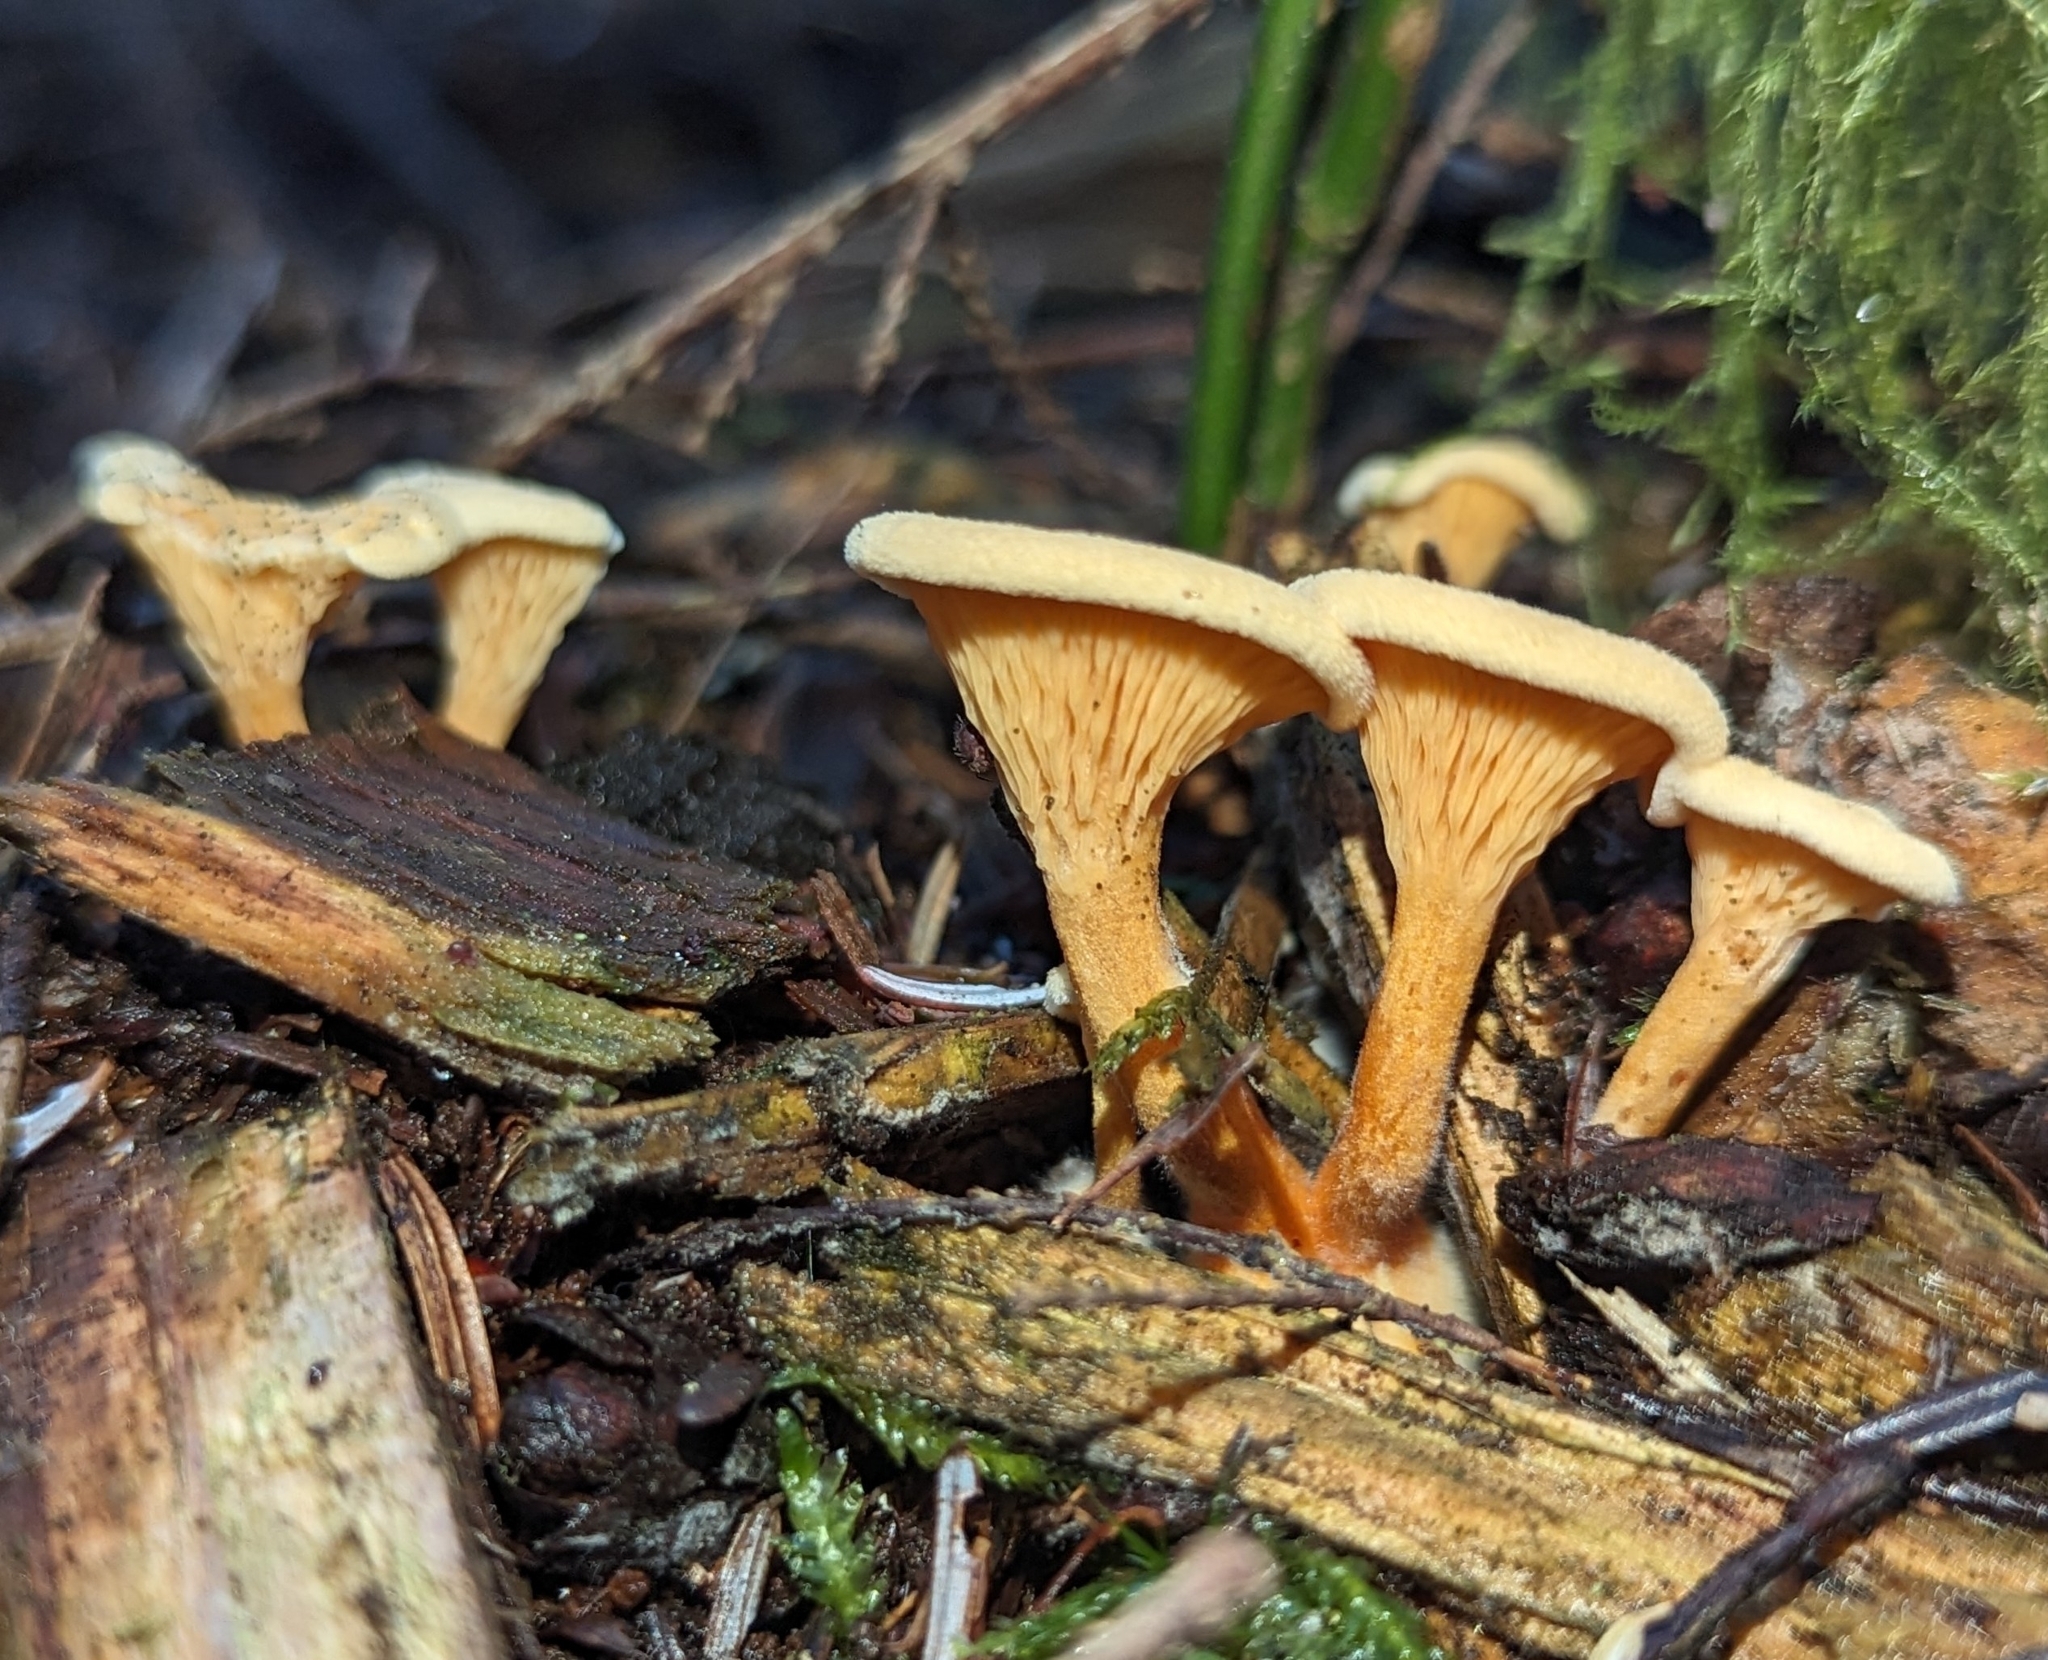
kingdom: Fungi
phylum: Basidiomycota
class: Agaricomycetes
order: Boletales
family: Hygrophoropsidaceae
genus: Hygrophoropsis
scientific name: Hygrophoropsis aurantiaca
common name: False chanterelle
